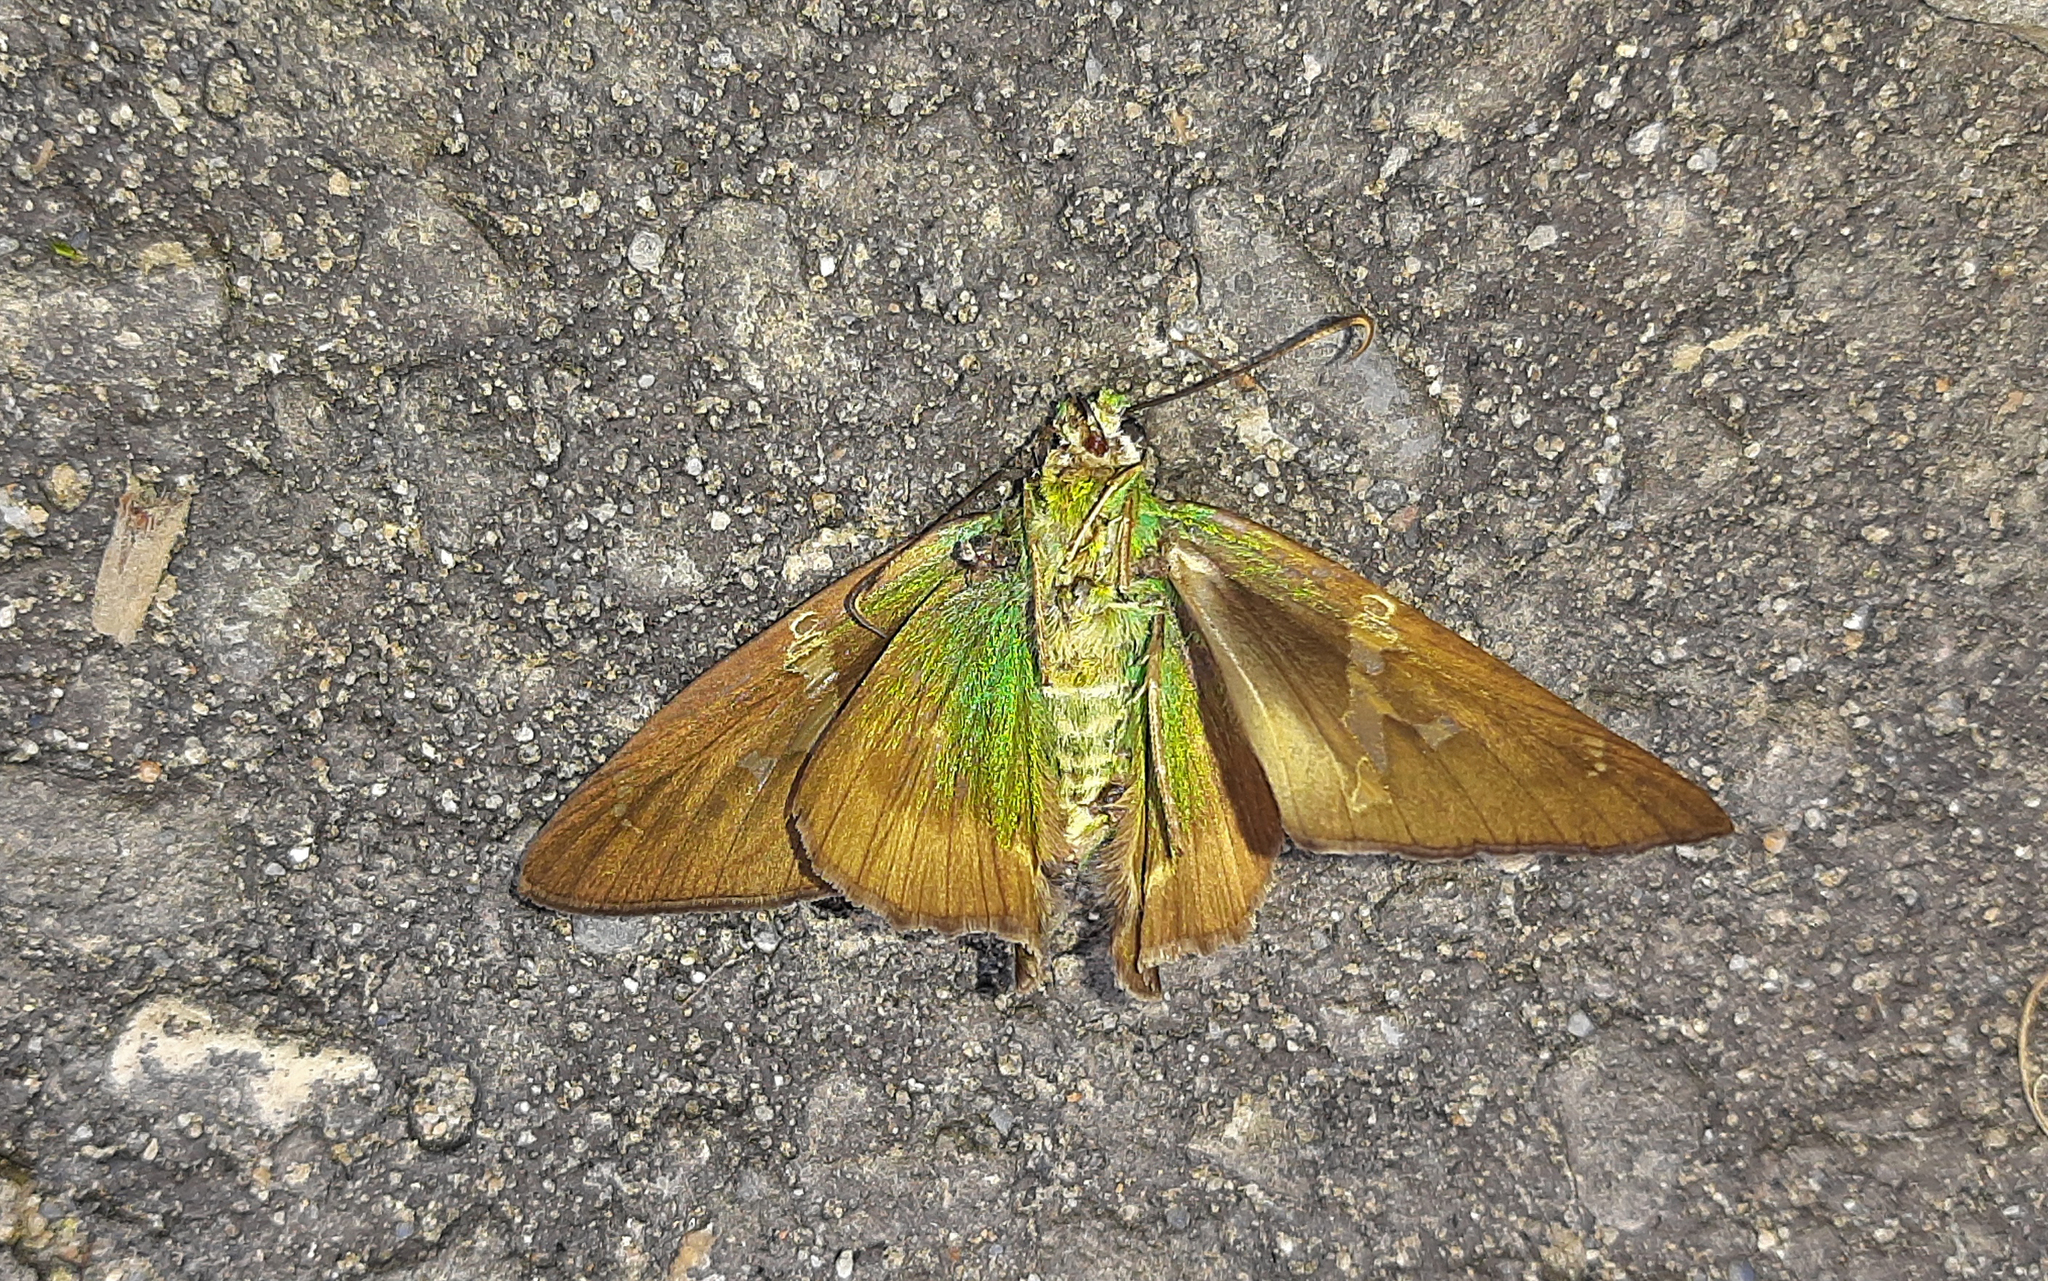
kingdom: Animalia
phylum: Arthropoda
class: Insecta
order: Lepidoptera
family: Hesperiidae
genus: Astraptes
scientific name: Astraptes talus
